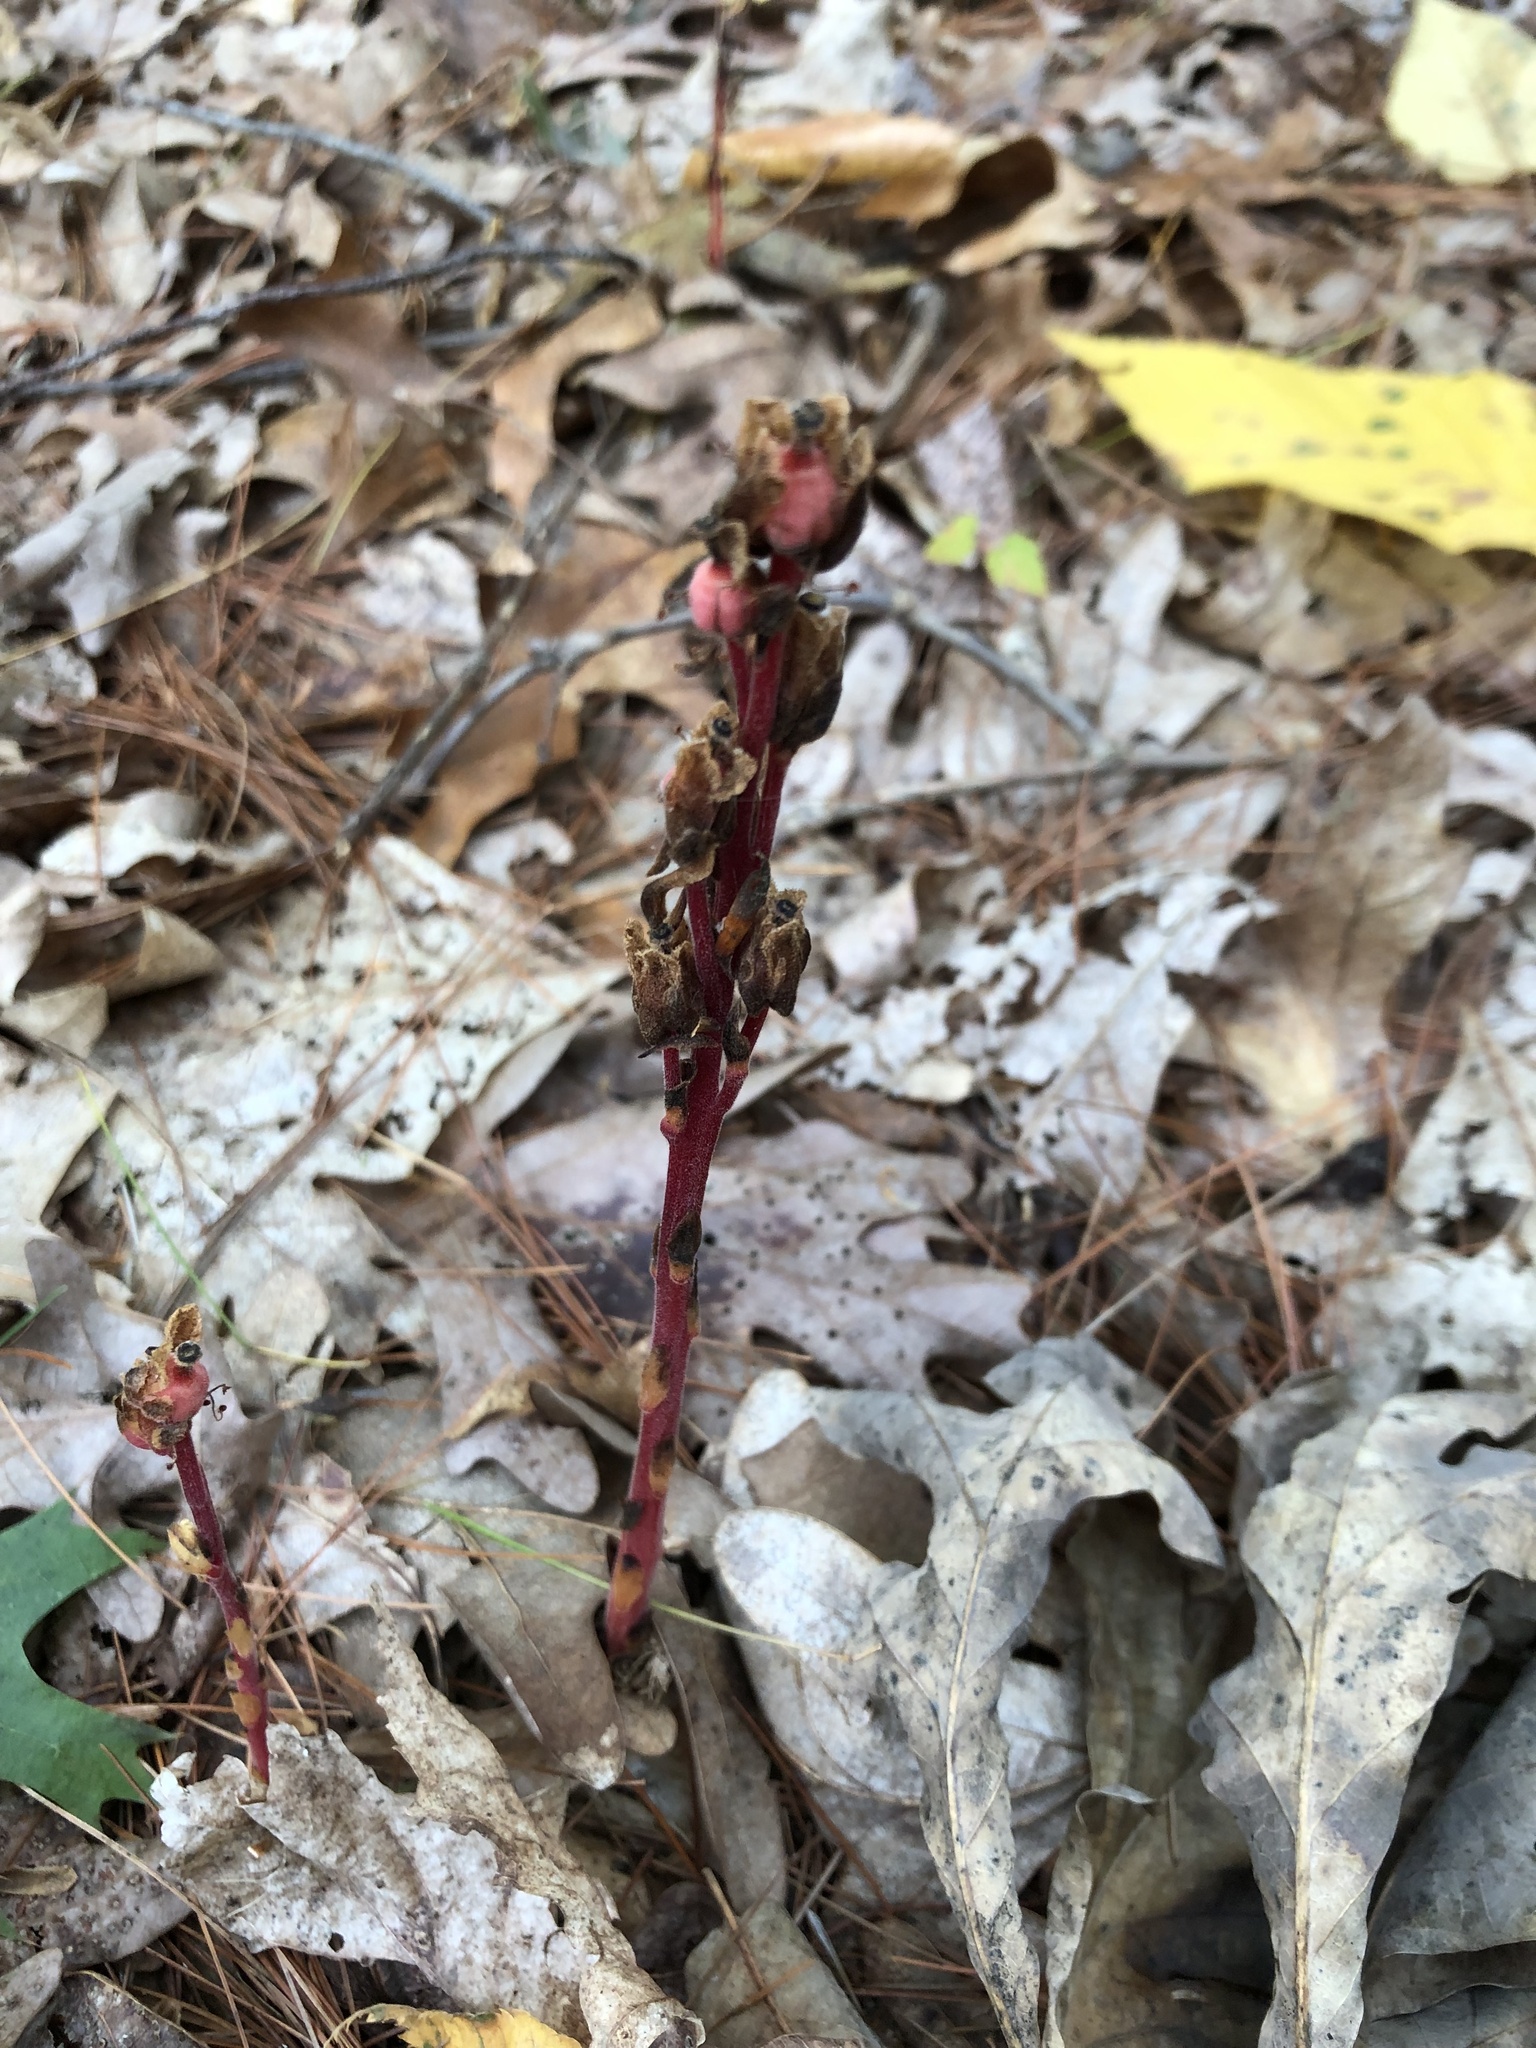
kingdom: Plantae
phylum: Tracheophyta
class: Magnoliopsida
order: Ericales
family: Ericaceae
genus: Hypopitys
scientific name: Hypopitys monotropa
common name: Yellow bird's-nest
